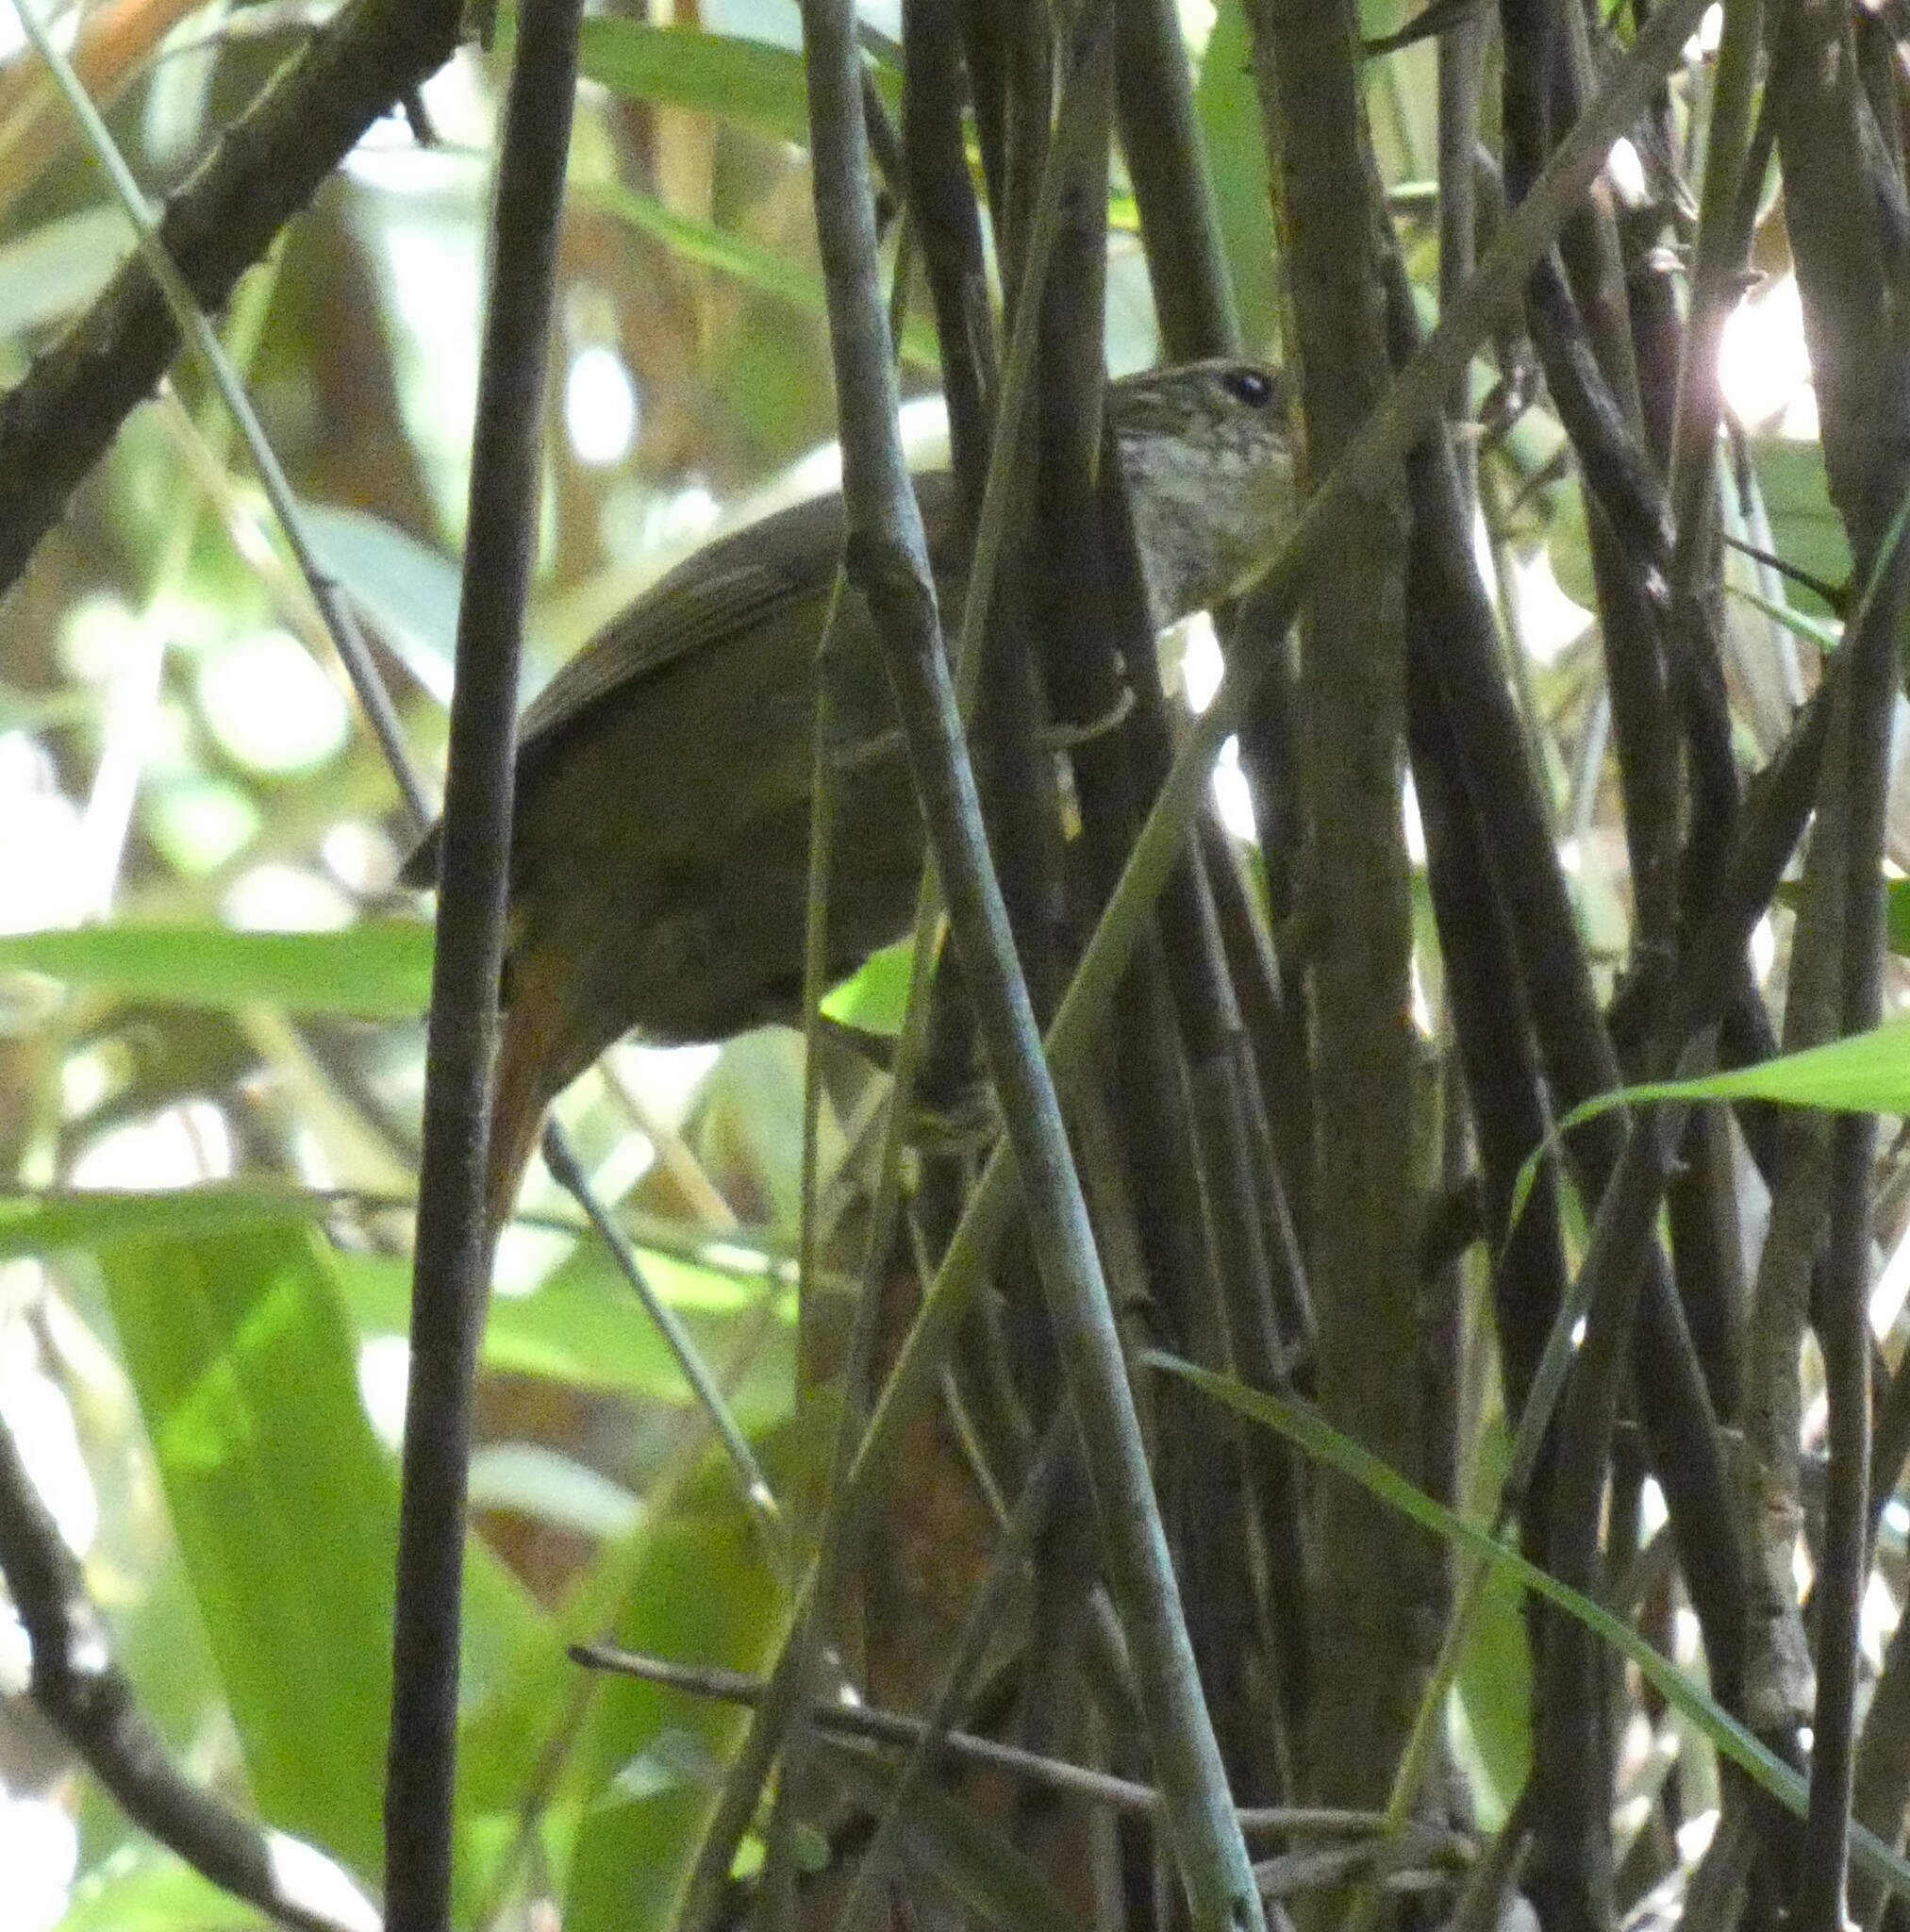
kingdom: Animalia
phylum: Chordata
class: Aves
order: Passeriformes
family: Furnariidae
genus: Syndactyla
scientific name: Syndactyla rufosuperciliata
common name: Buff-browed foliage-gleaner
